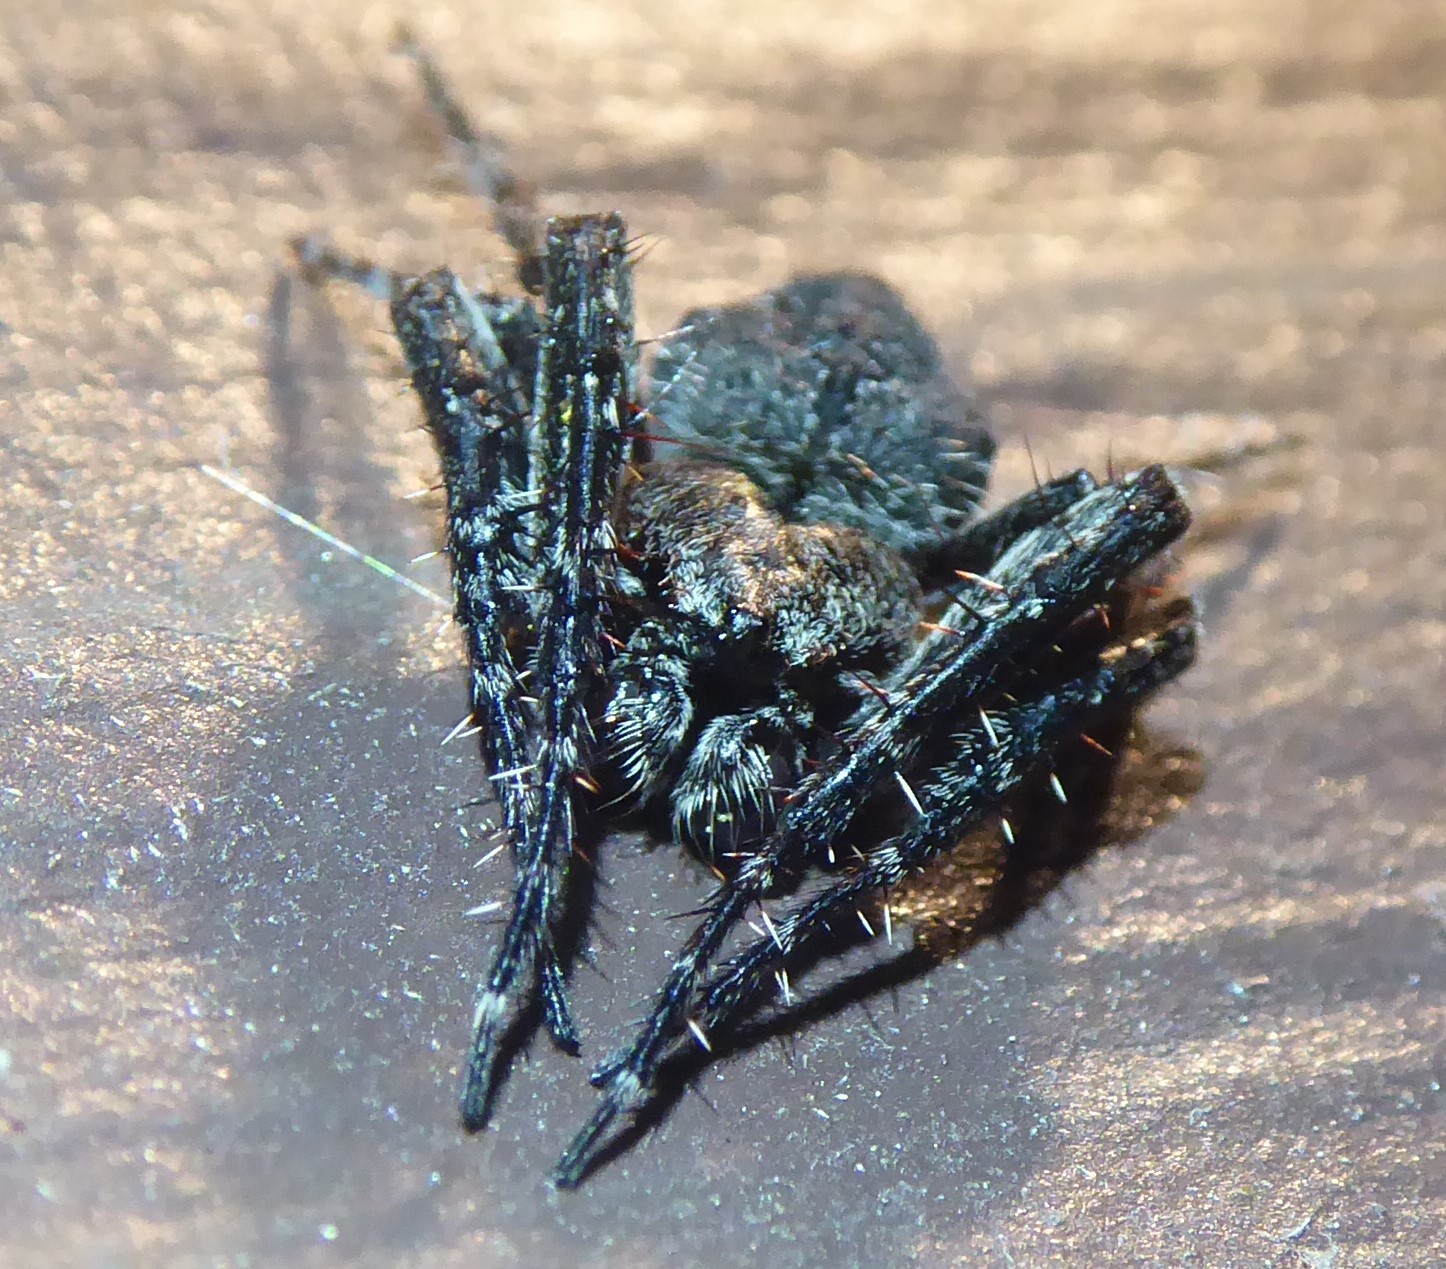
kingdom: Animalia
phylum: Arthropoda
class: Arachnida
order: Araneae
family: Araneidae
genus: Eriophora
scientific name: Eriophora pustulosa
